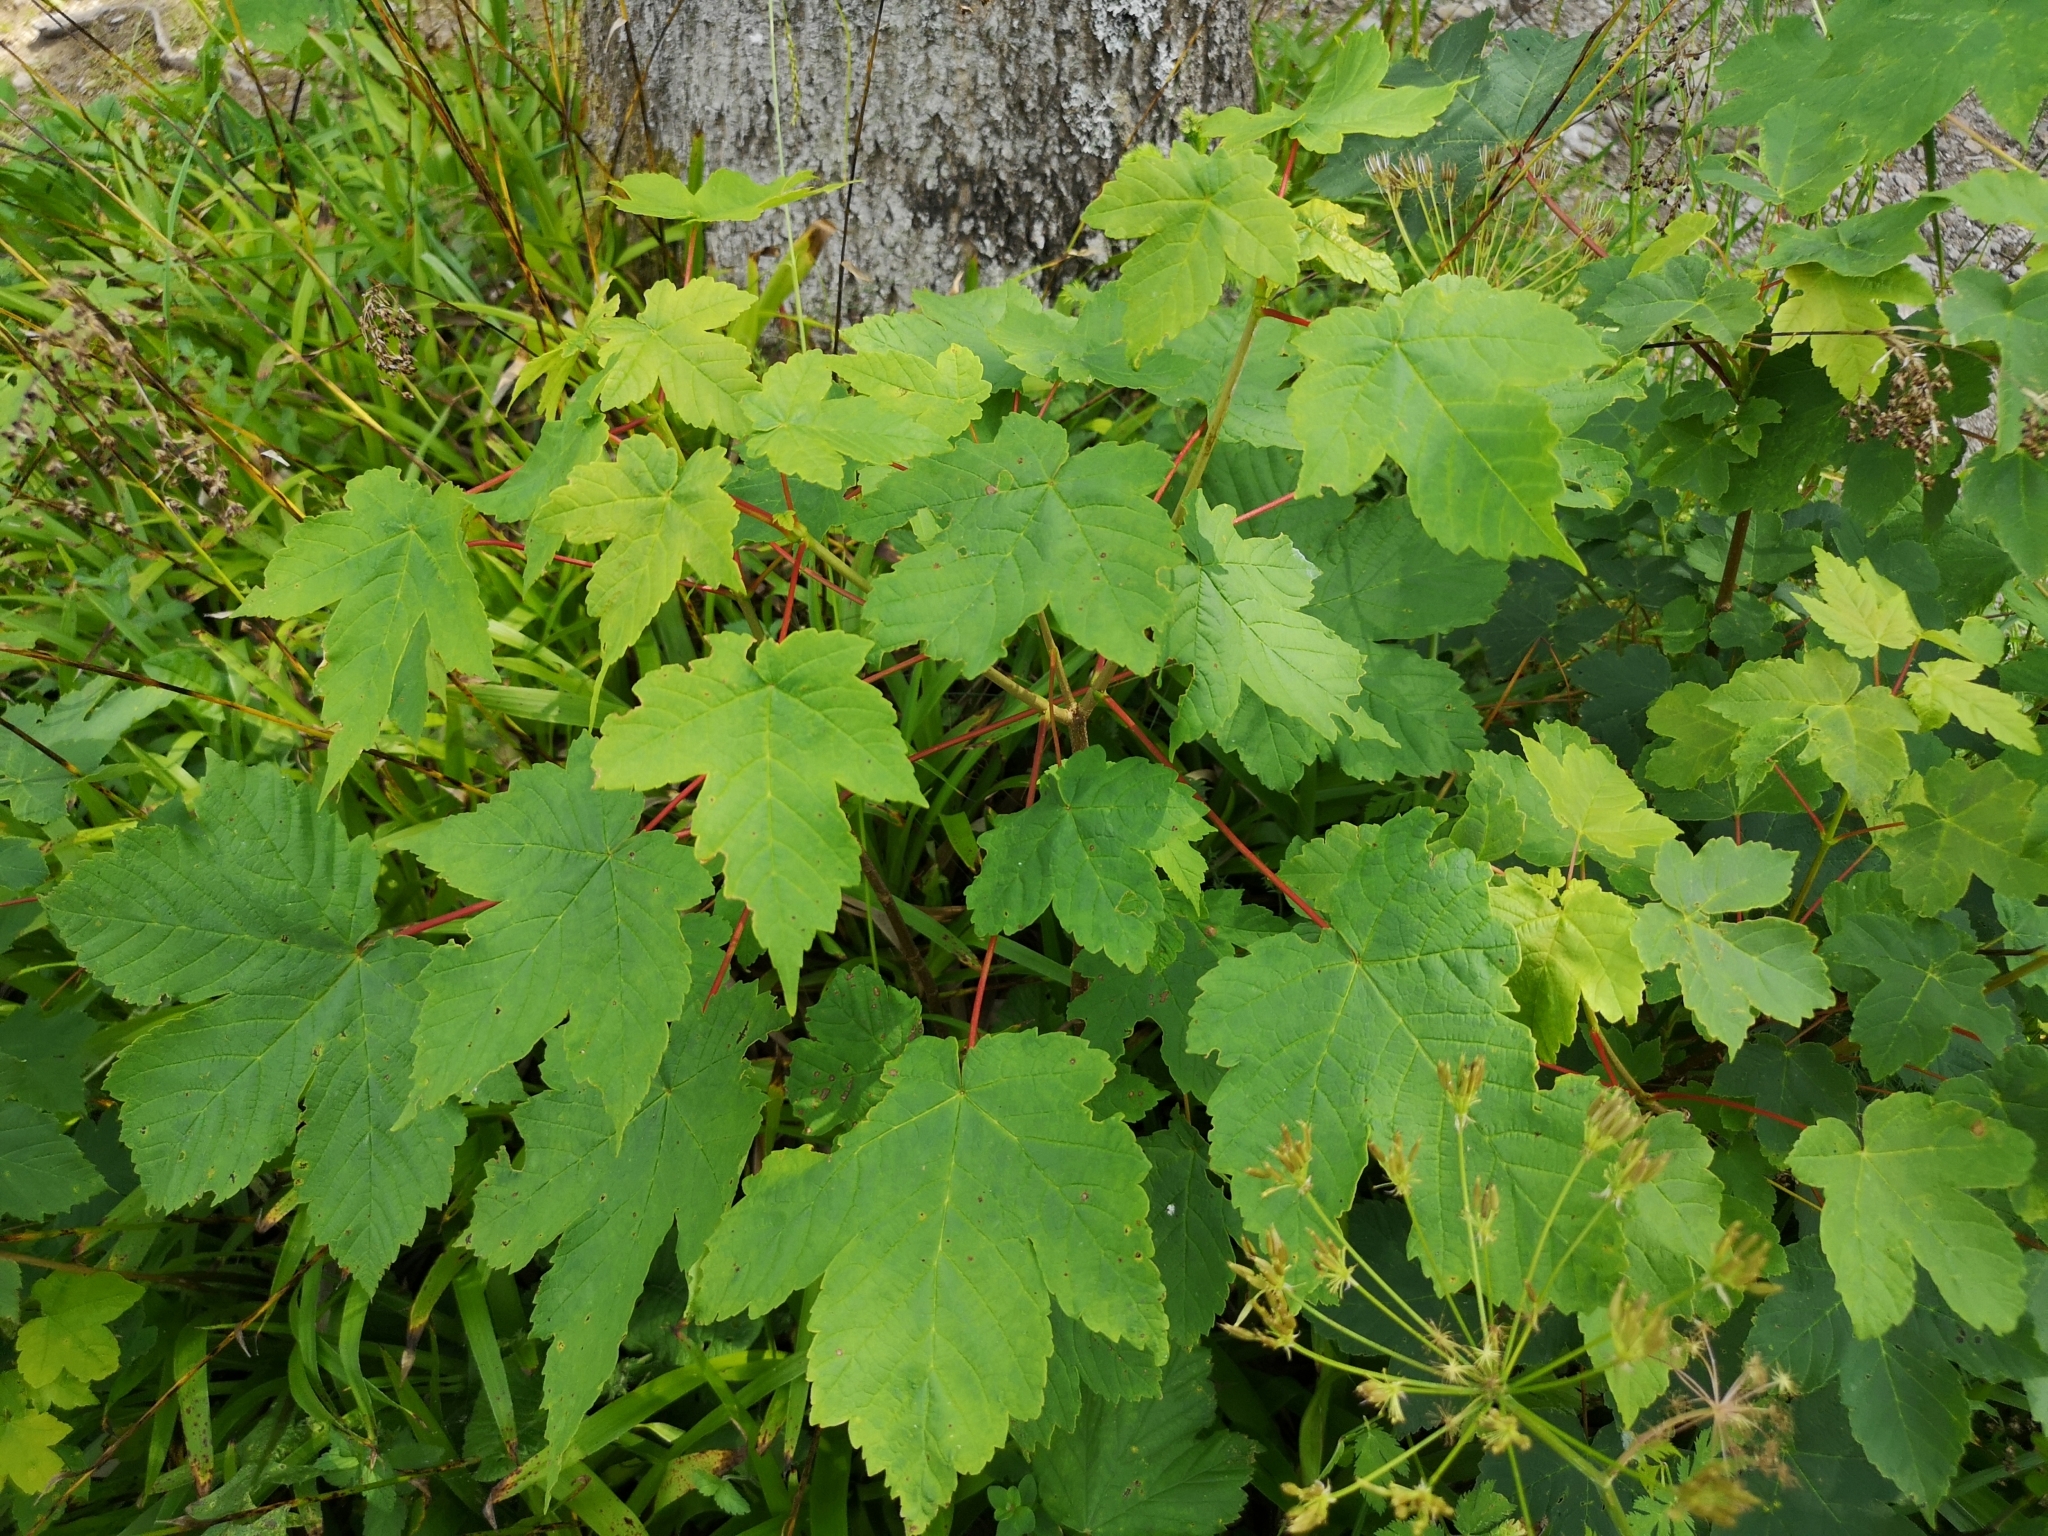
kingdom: Plantae
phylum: Tracheophyta
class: Magnoliopsida
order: Sapindales
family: Sapindaceae
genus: Acer
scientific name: Acer pseudoplatanus
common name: Sycamore
